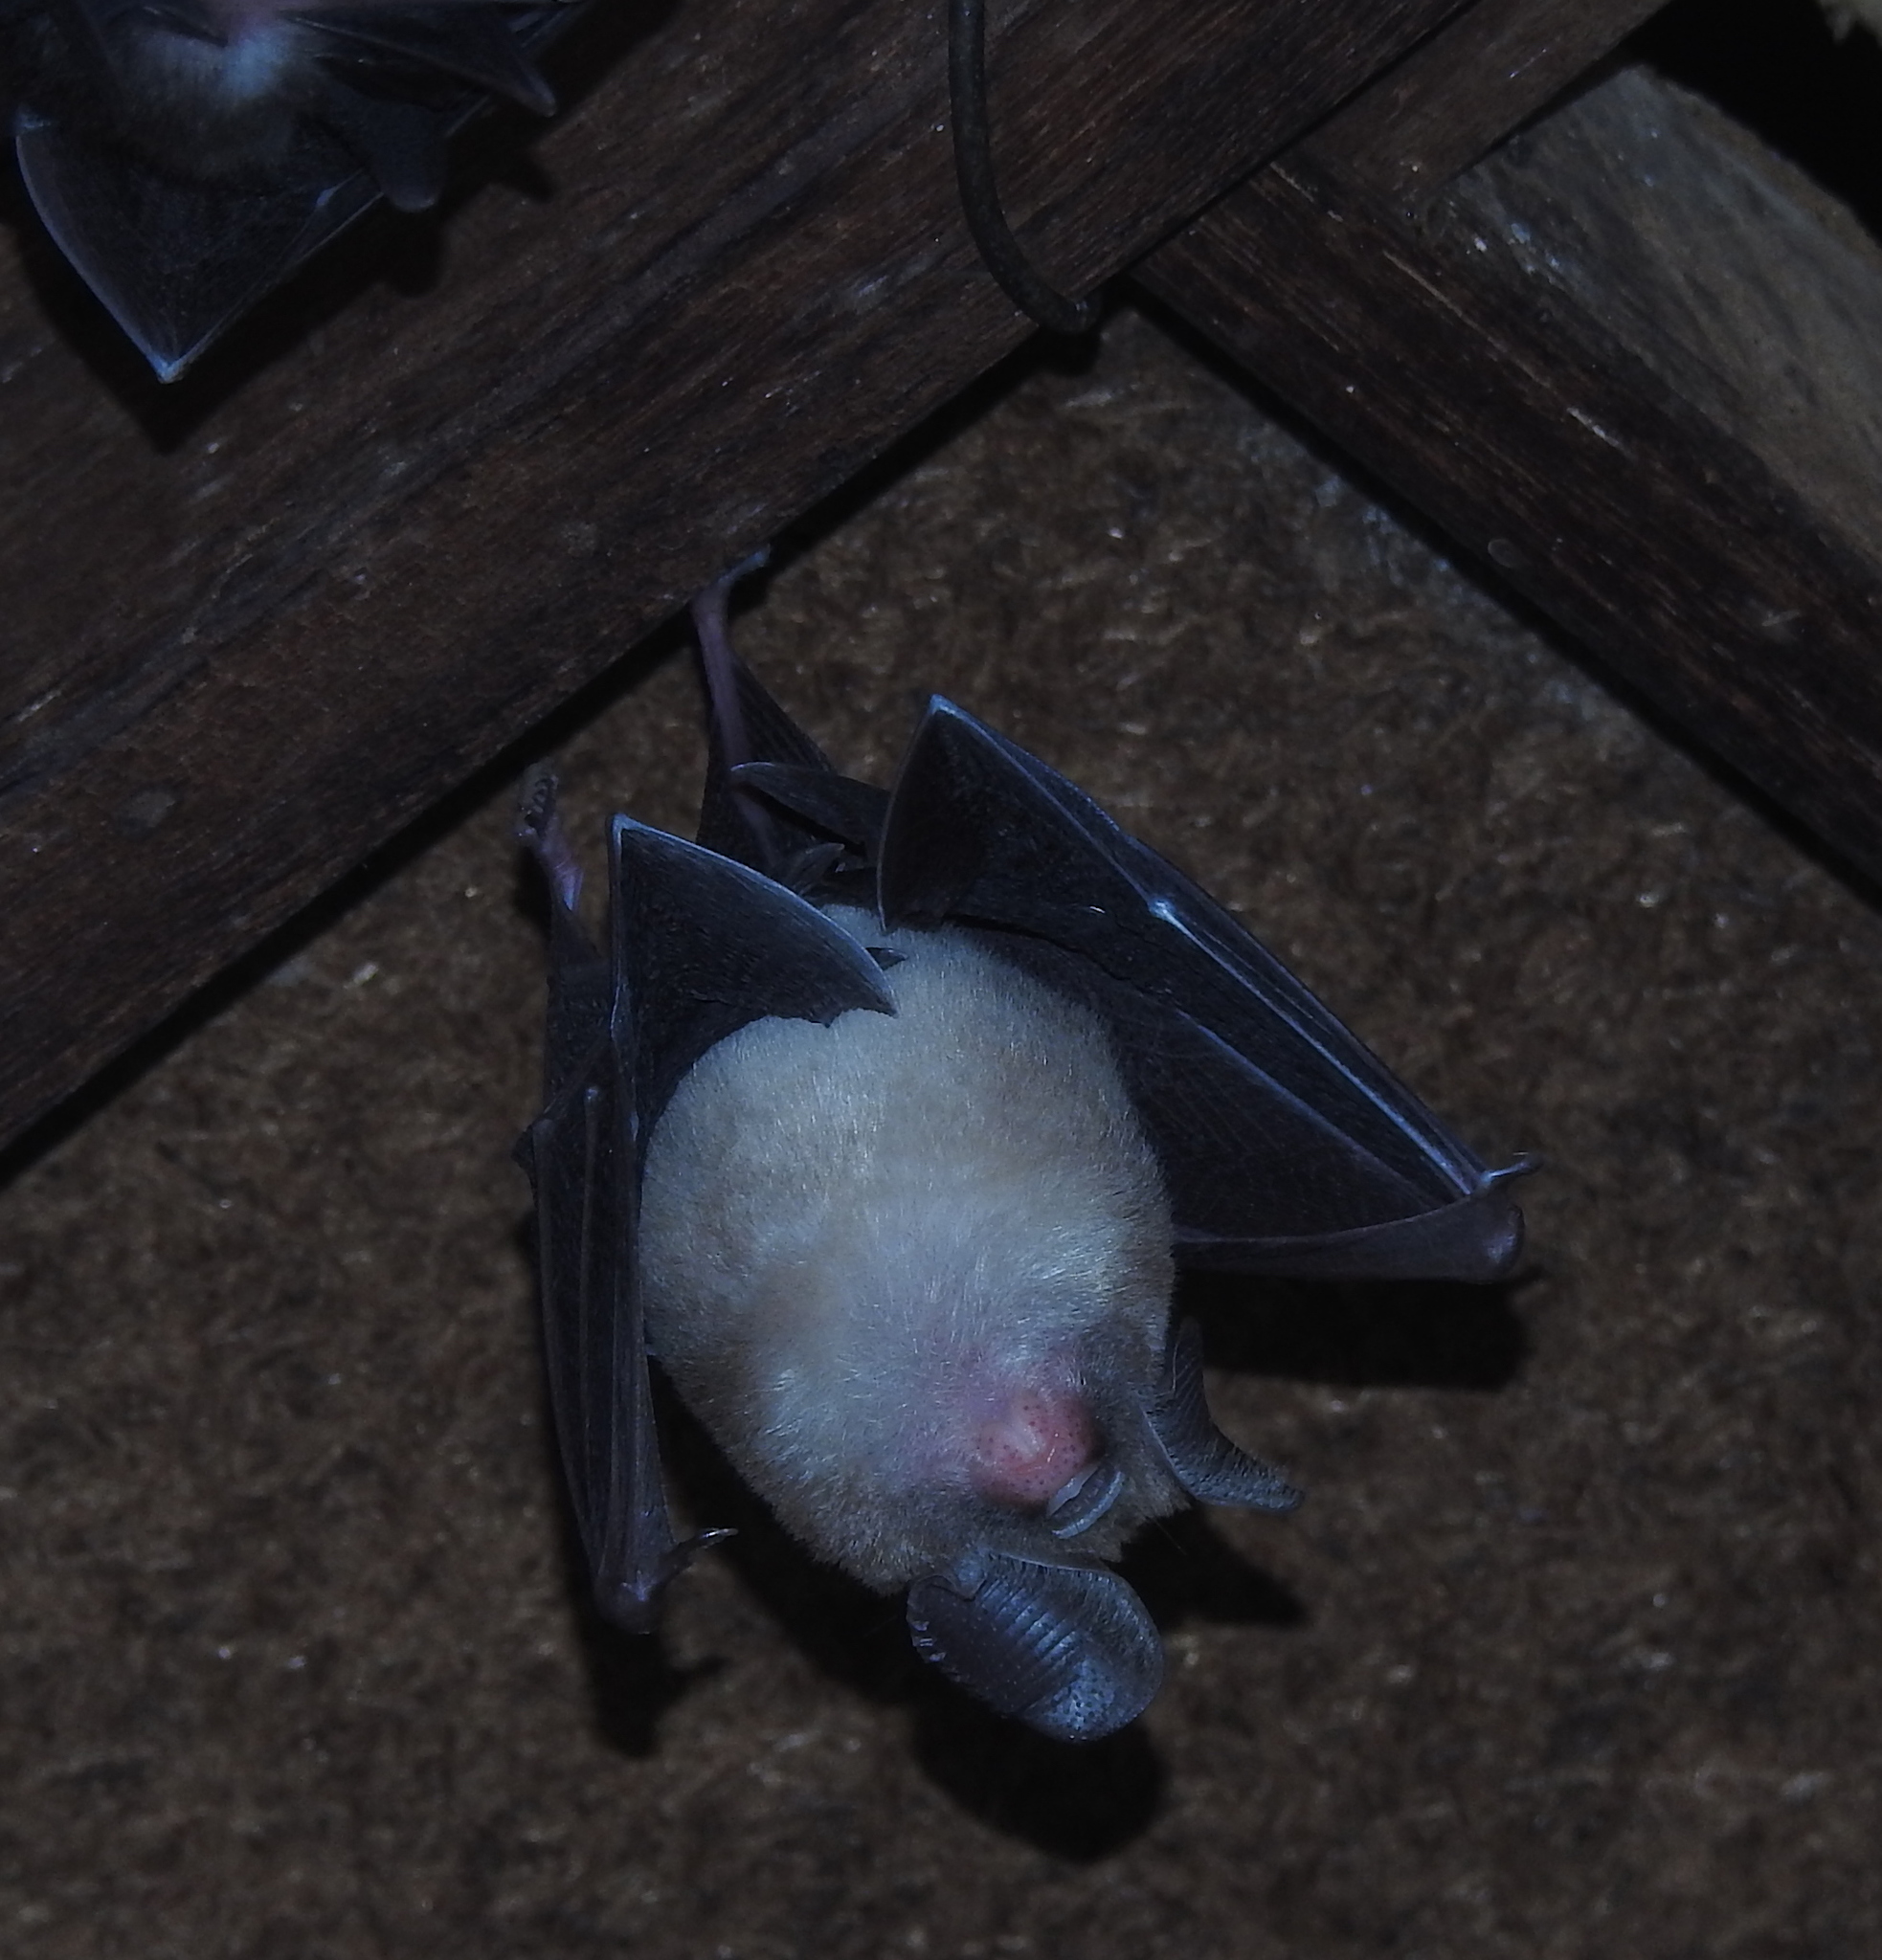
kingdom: Animalia
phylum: Chordata
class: Mammalia
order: Chiroptera
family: Hipposideridae
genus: Hipposideros
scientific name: Hipposideros fulvus
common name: Fulvus leaf-nosed bat
